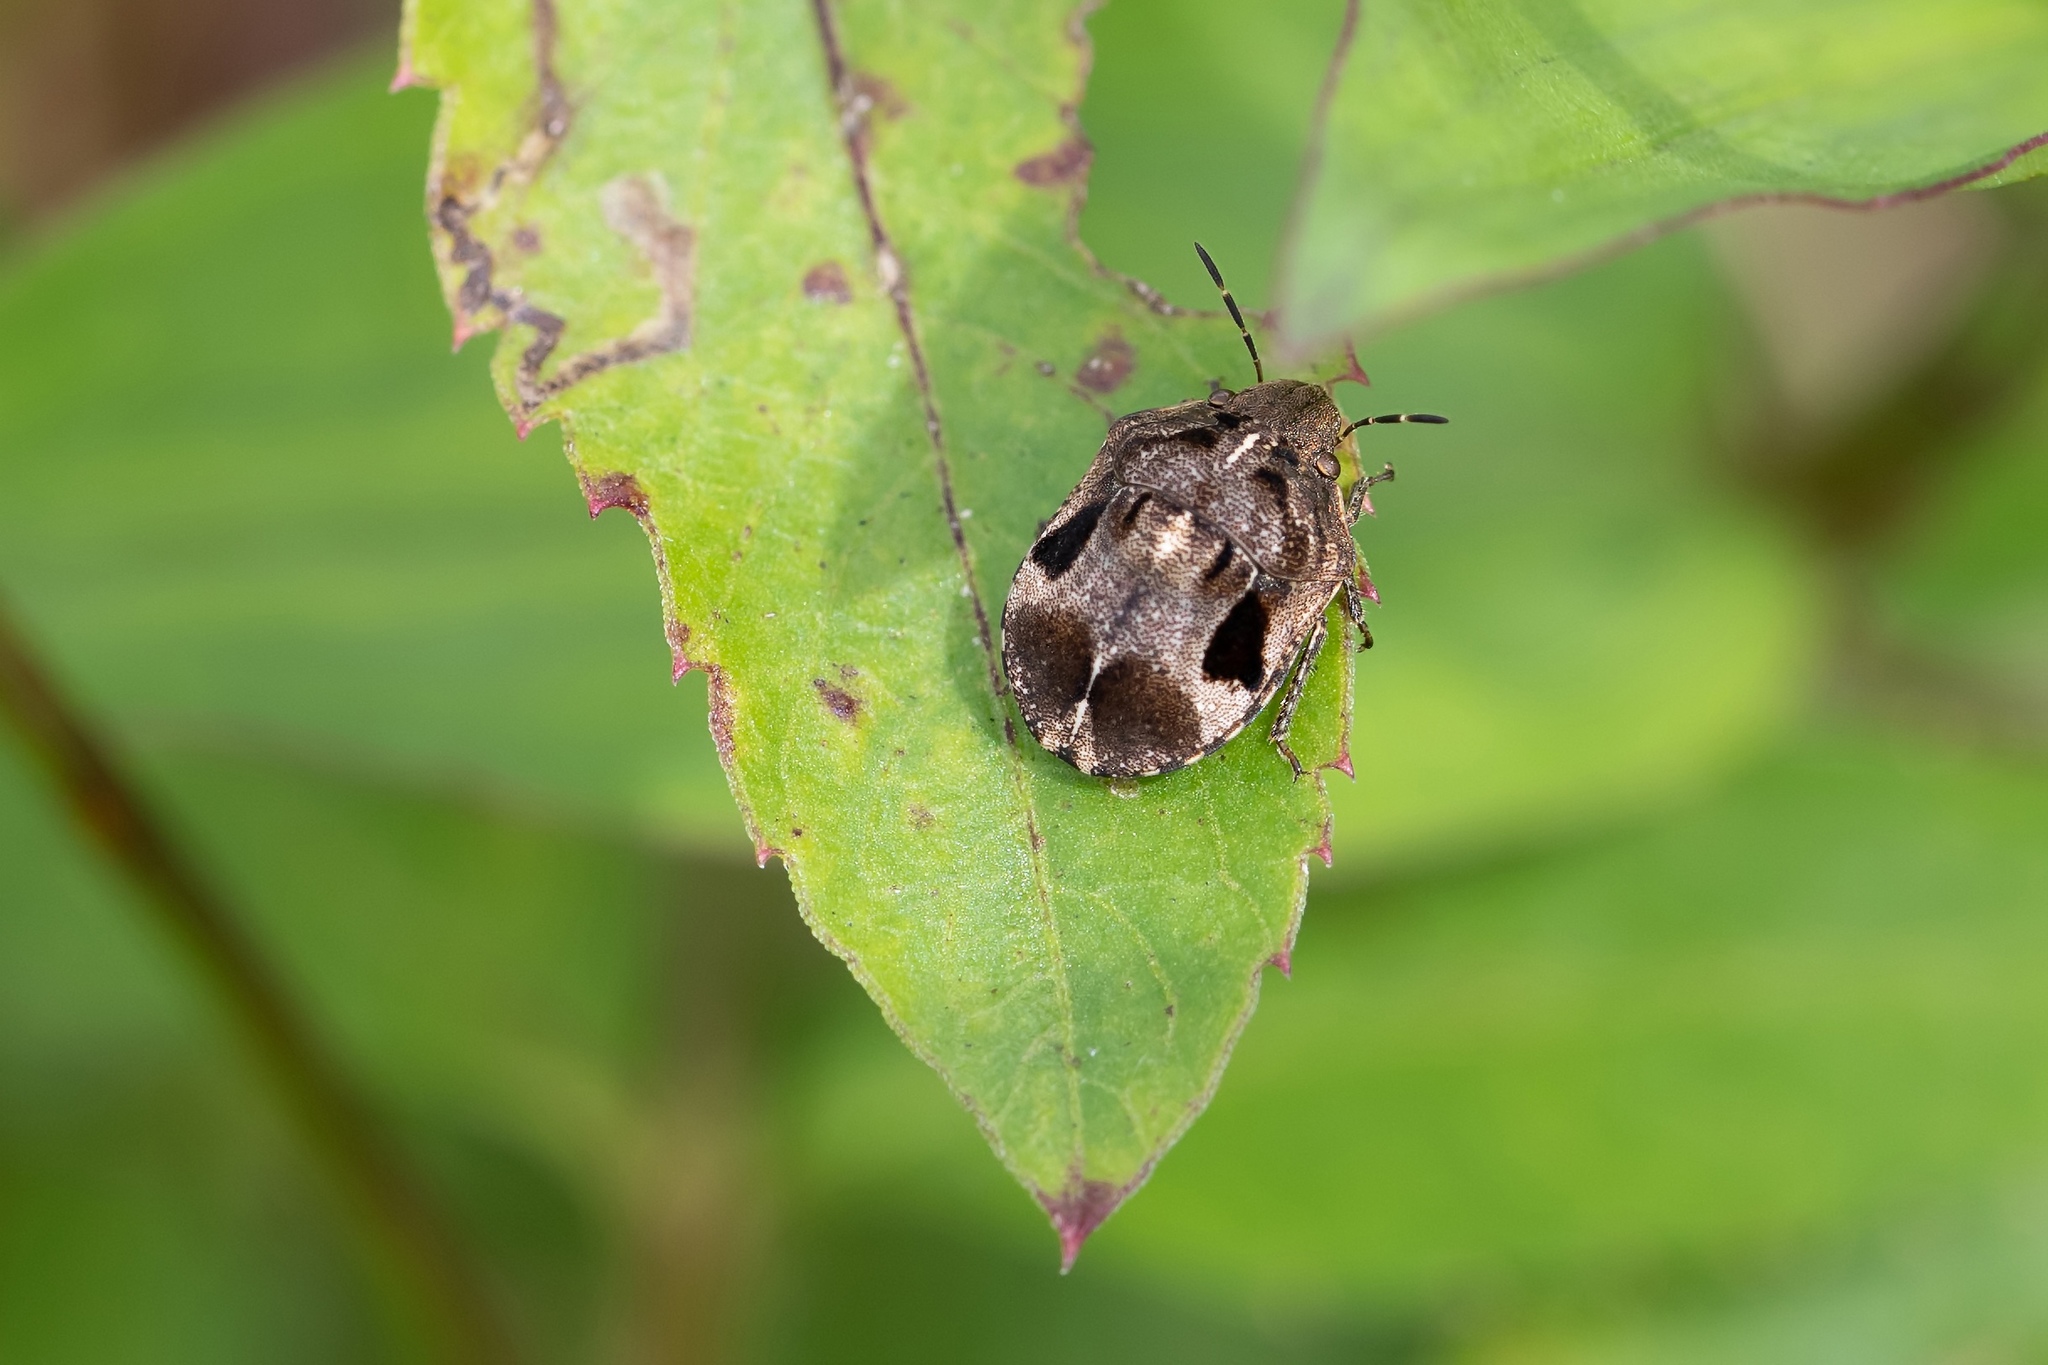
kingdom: Animalia
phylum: Arthropoda
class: Insecta
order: Hemiptera
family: Scutelleridae
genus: Homaemus
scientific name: Homaemus proteus
